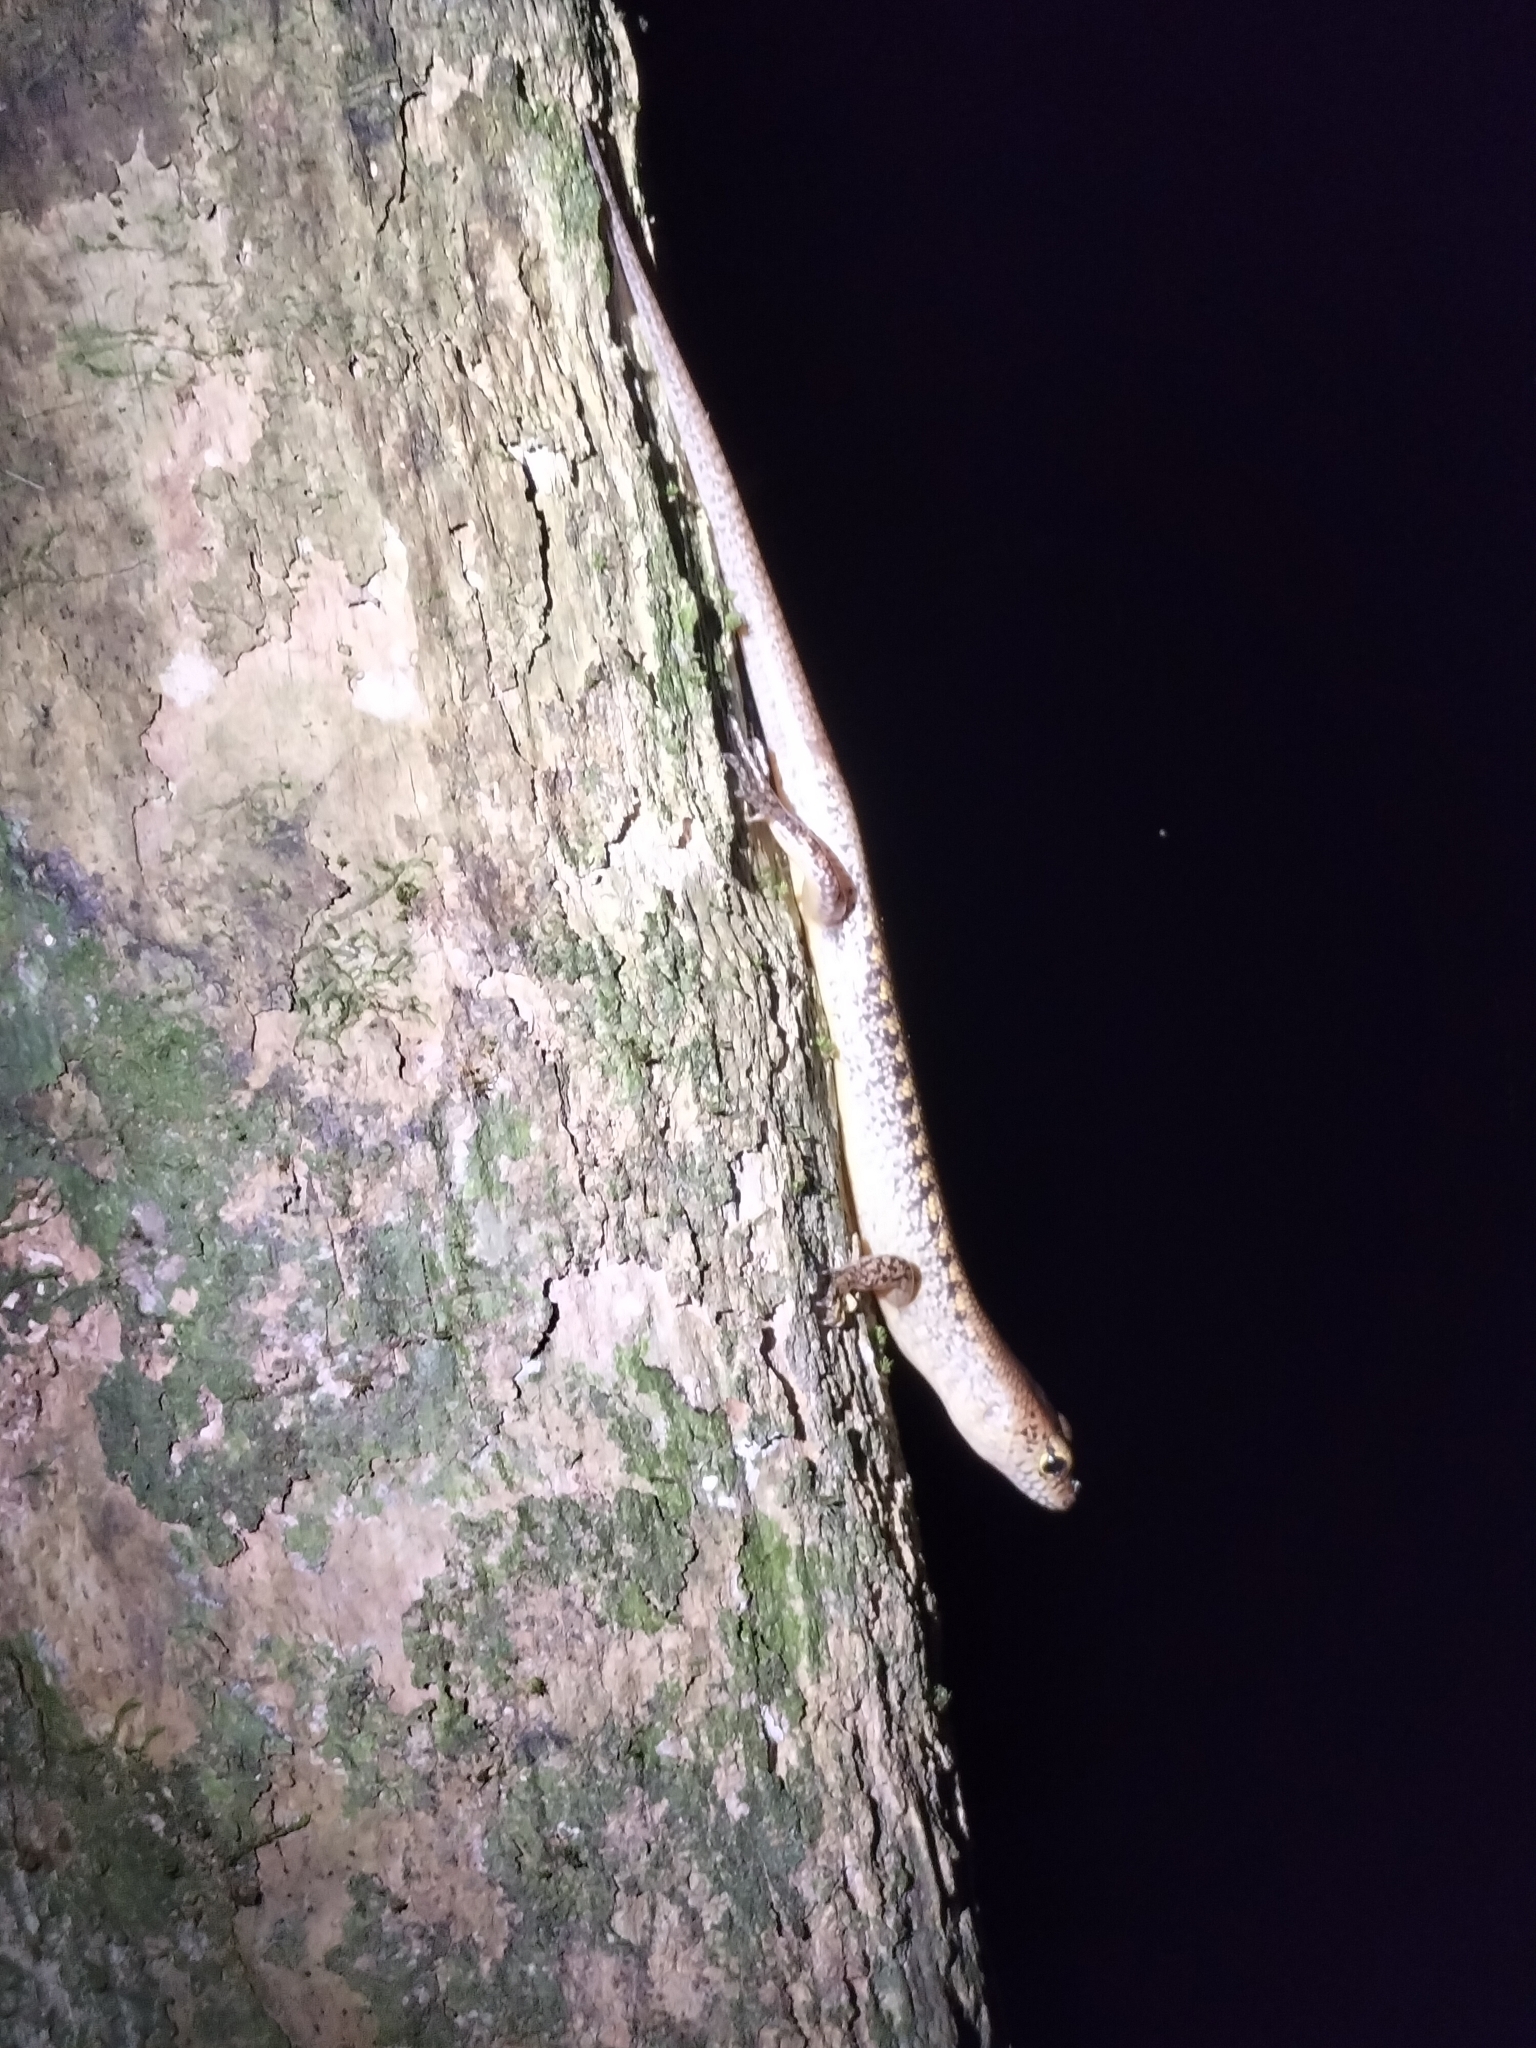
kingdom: Animalia
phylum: Chordata
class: Squamata
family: Scincidae
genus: Concinnia
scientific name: Concinnia tigrina
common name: Rainforest water-skink
